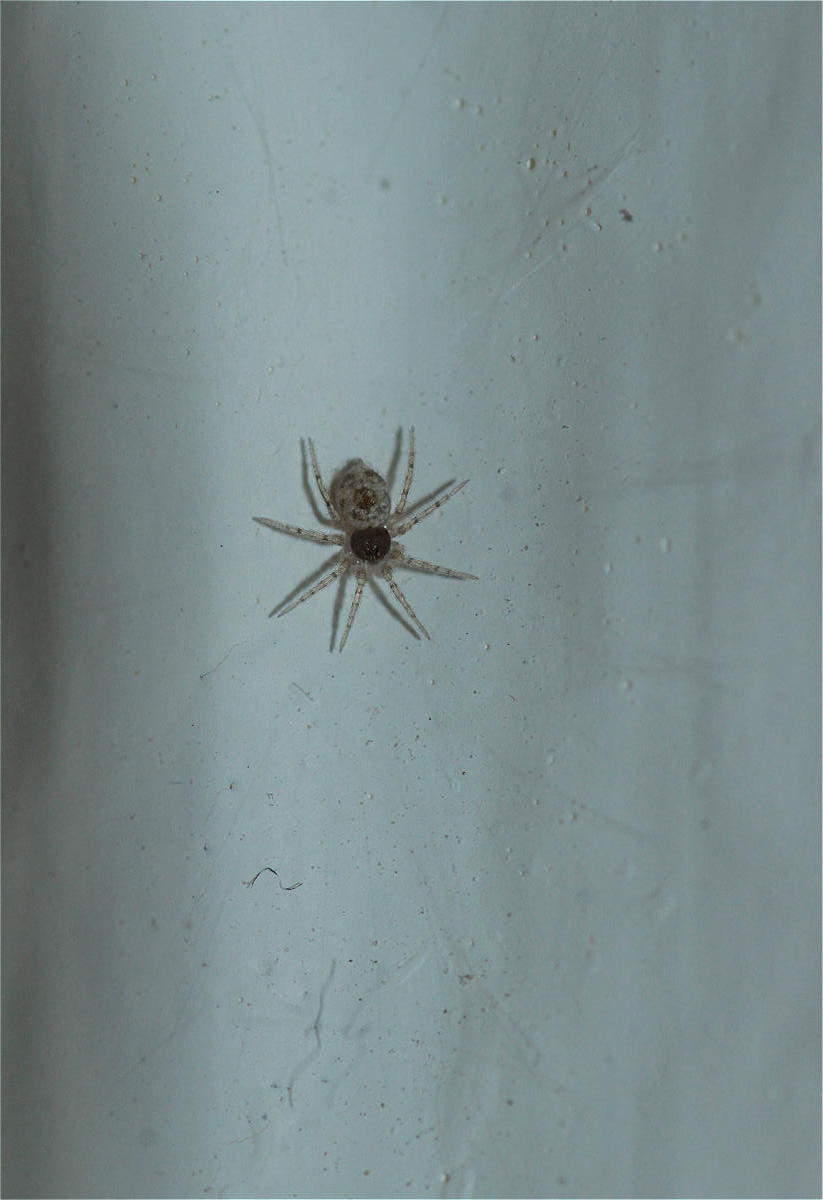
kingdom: Animalia
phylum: Arthropoda
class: Arachnida
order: Araneae
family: Oecobiidae
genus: Oecobius
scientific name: Oecobius
